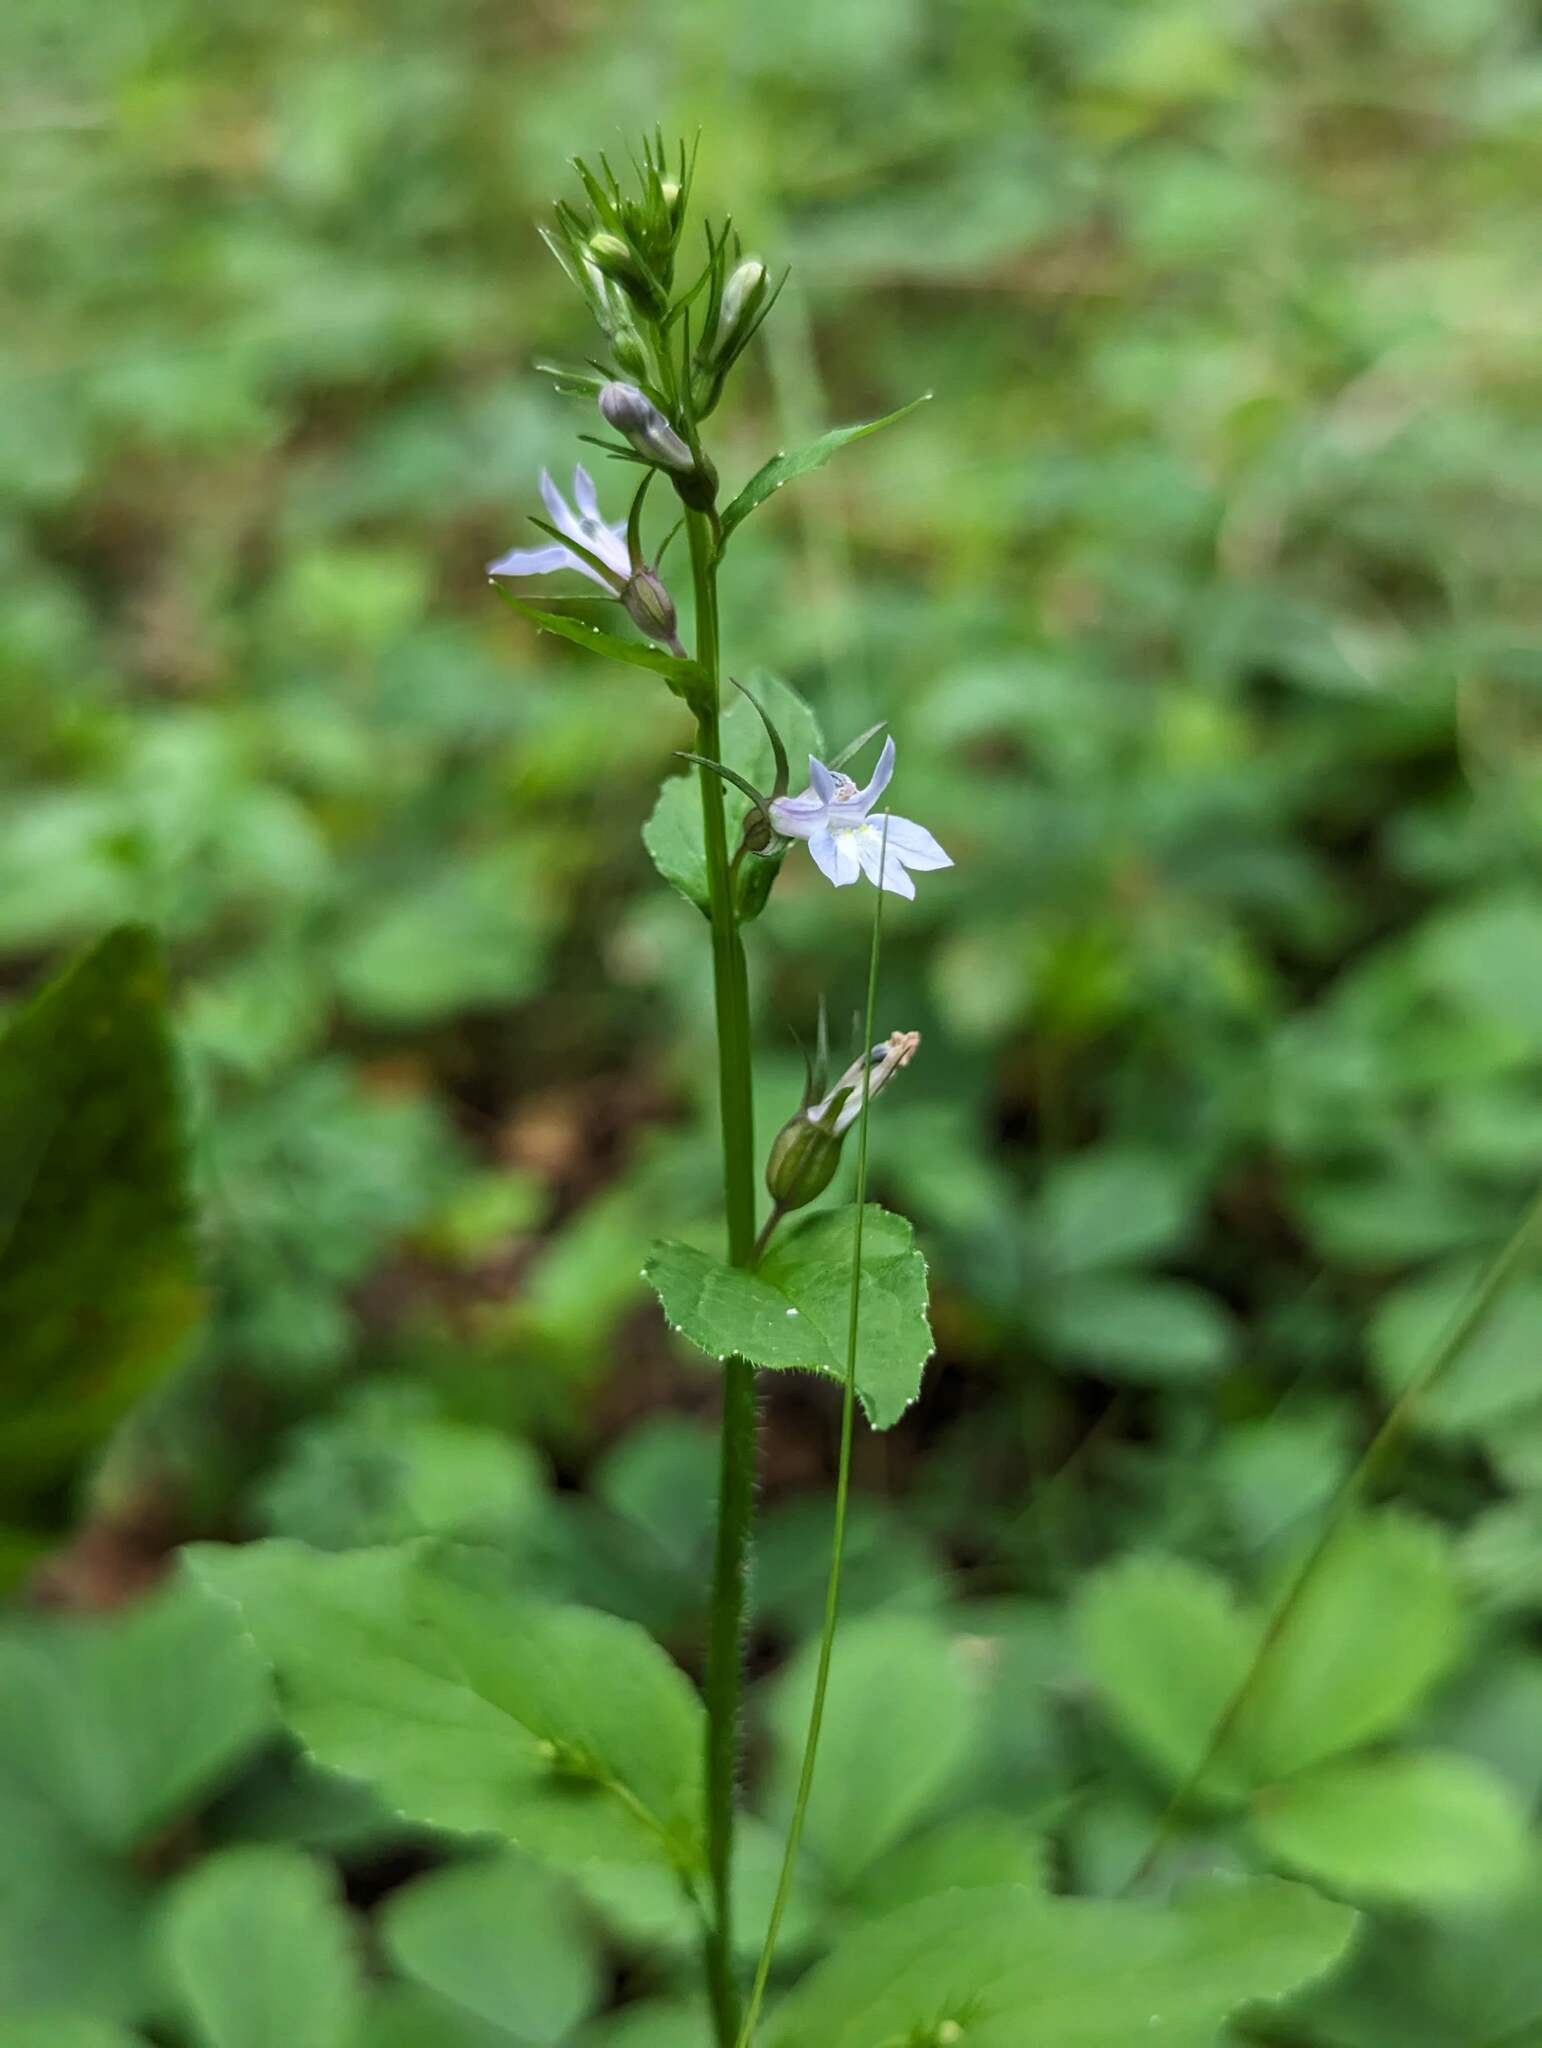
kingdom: Plantae
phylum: Tracheophyta
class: Magnoliopsida
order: Asterales
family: Campanulaceae
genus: Lobelia
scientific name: Lobelia inflata
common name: Indian tobacco
